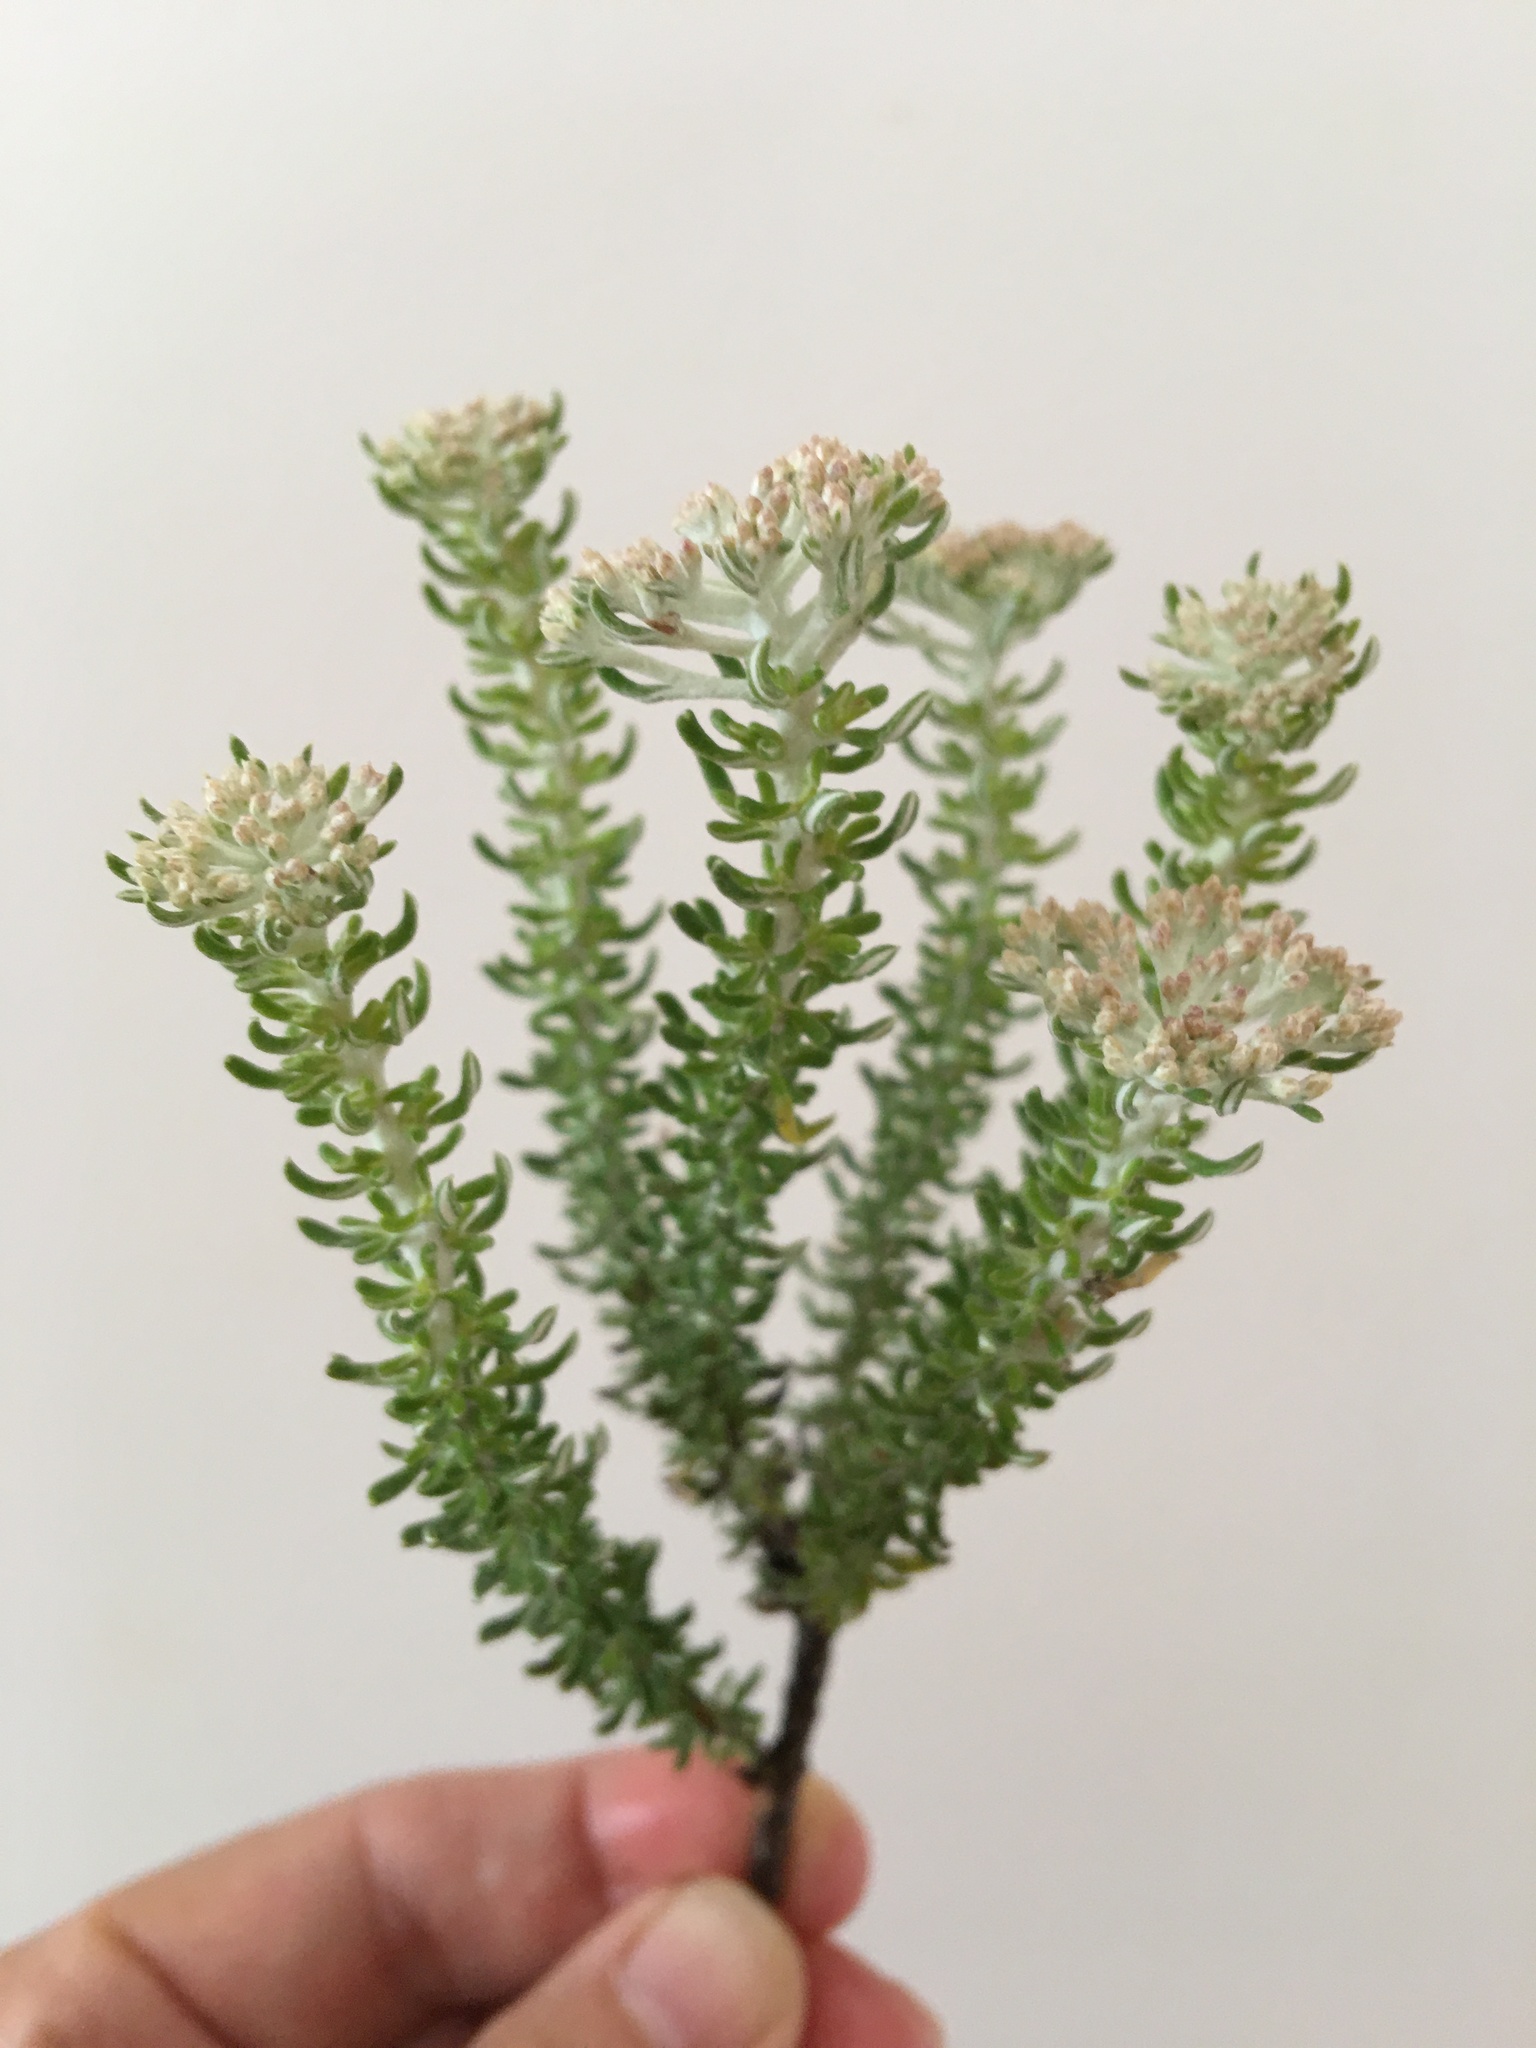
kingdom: Plantae
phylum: Tracheophyta
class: Magnoliopsida
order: Asterales
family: Asteraceae
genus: Metalasia
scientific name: Metalasia muricata
